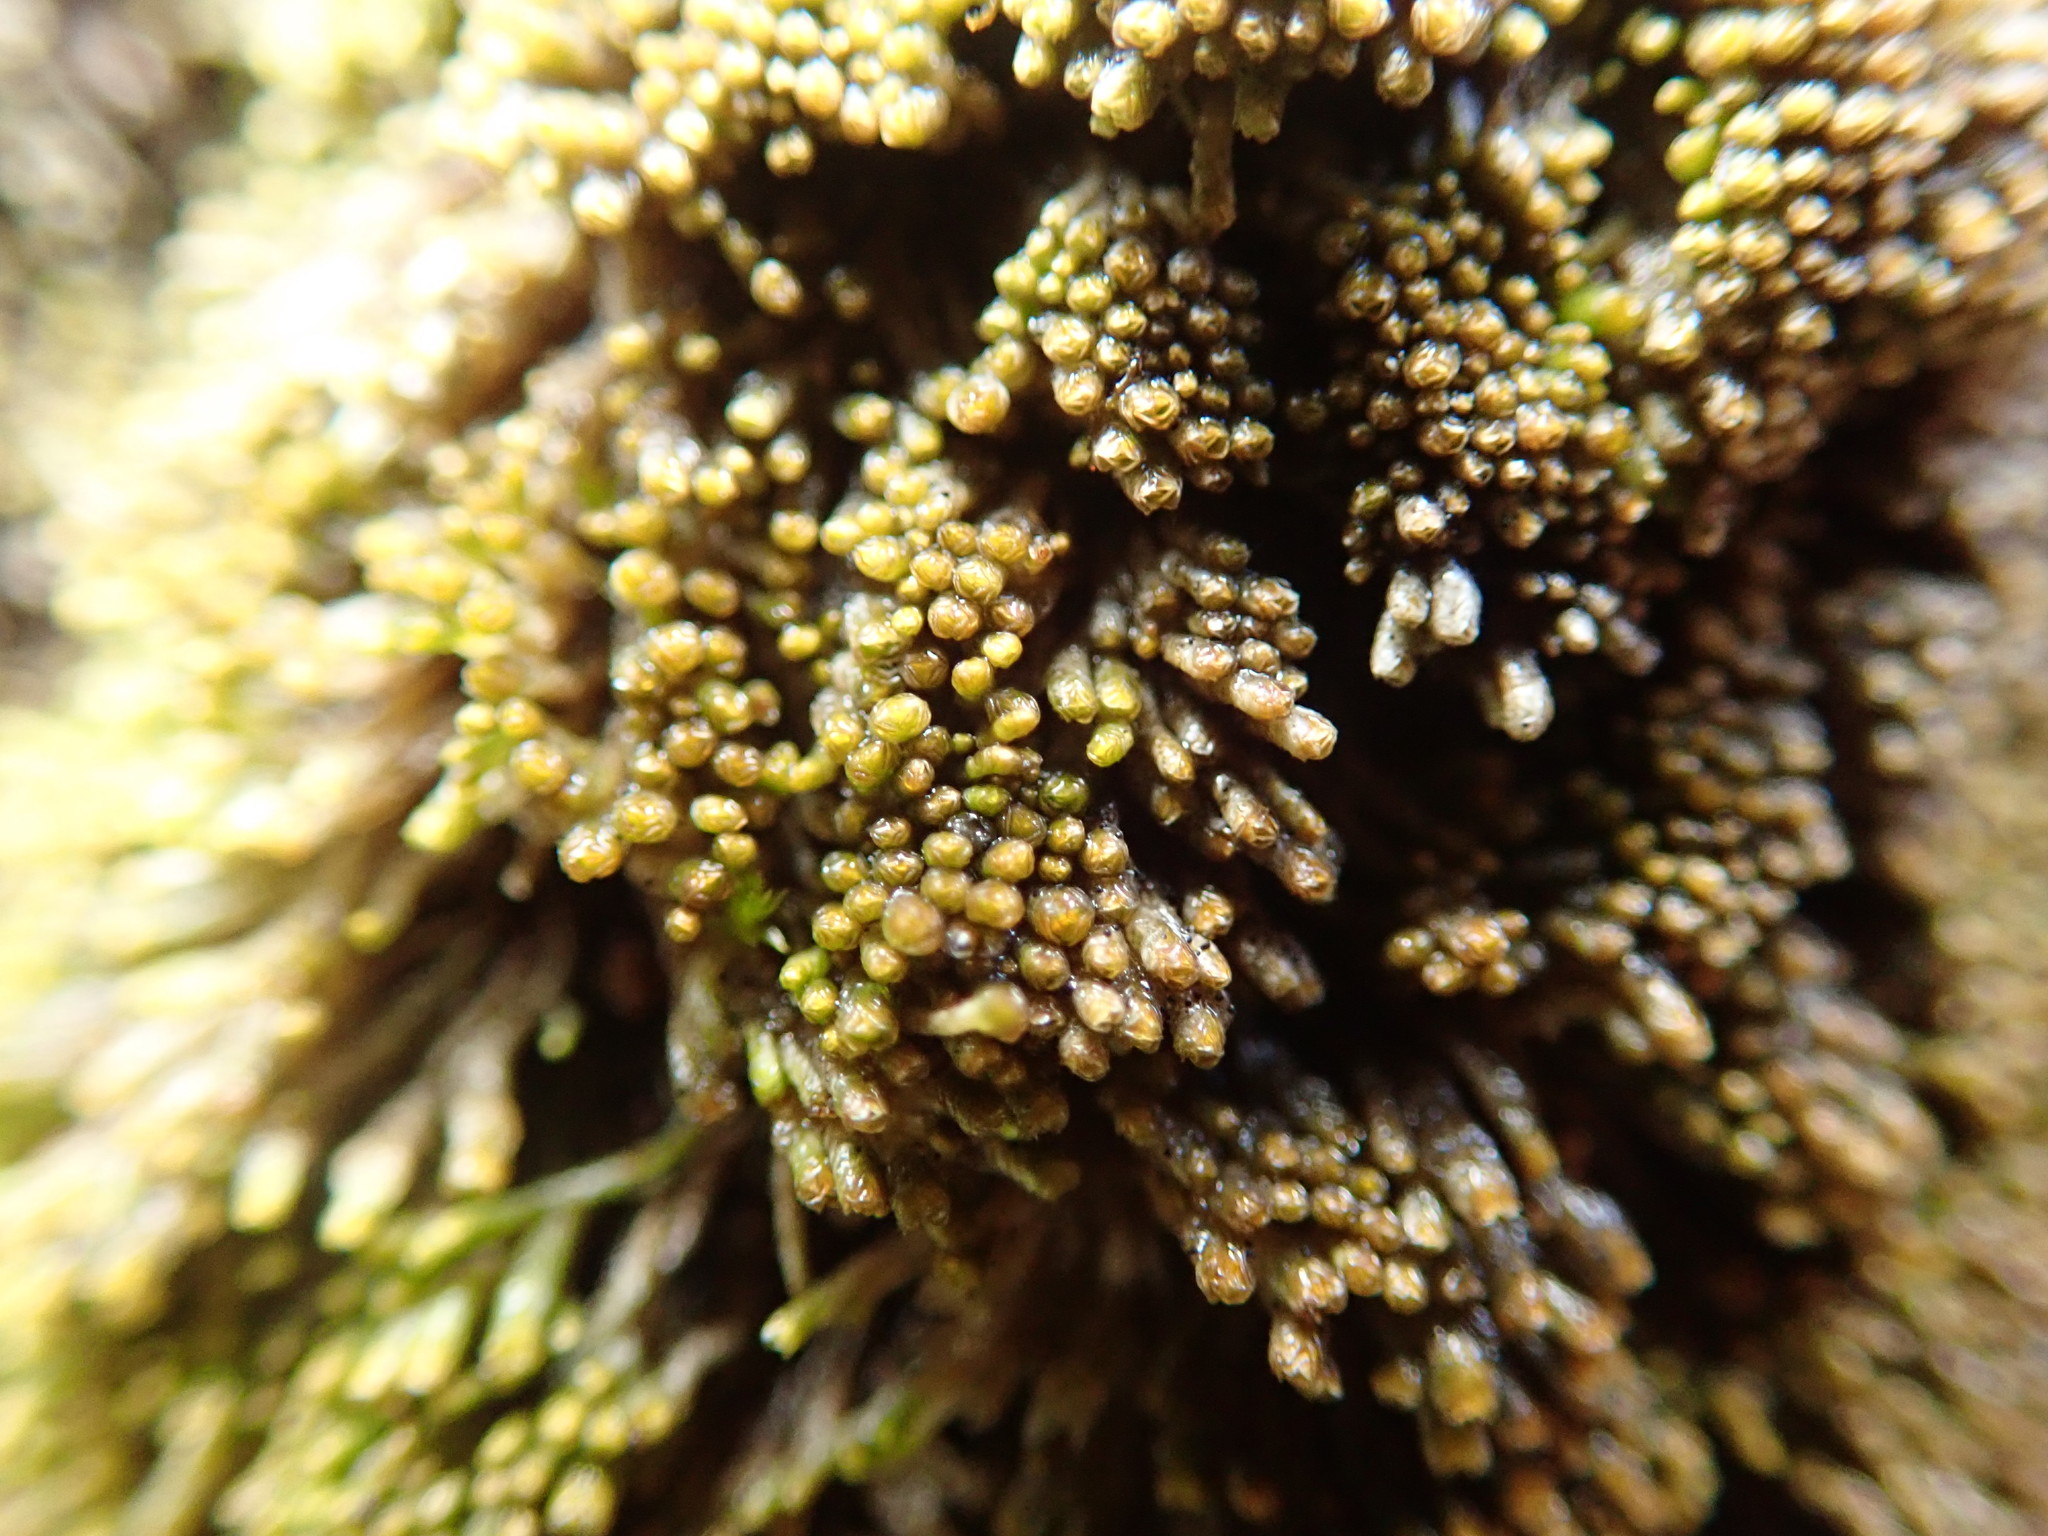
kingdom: Plantae
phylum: Marchantiophyta
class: Jungermanniopsida
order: Jungermanniales
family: Gymnomitriaceae
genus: Gymnomitrion
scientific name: Gymnomitrion obtusum
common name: White frostwort
